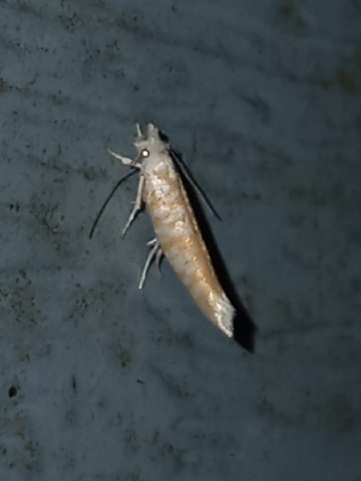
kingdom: Animalia
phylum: Arthropoda
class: Insecta
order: Lepidoptera
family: Yponomeutidae
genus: Zelleria
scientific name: Zelleria retiniella
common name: Brindled zelleria
